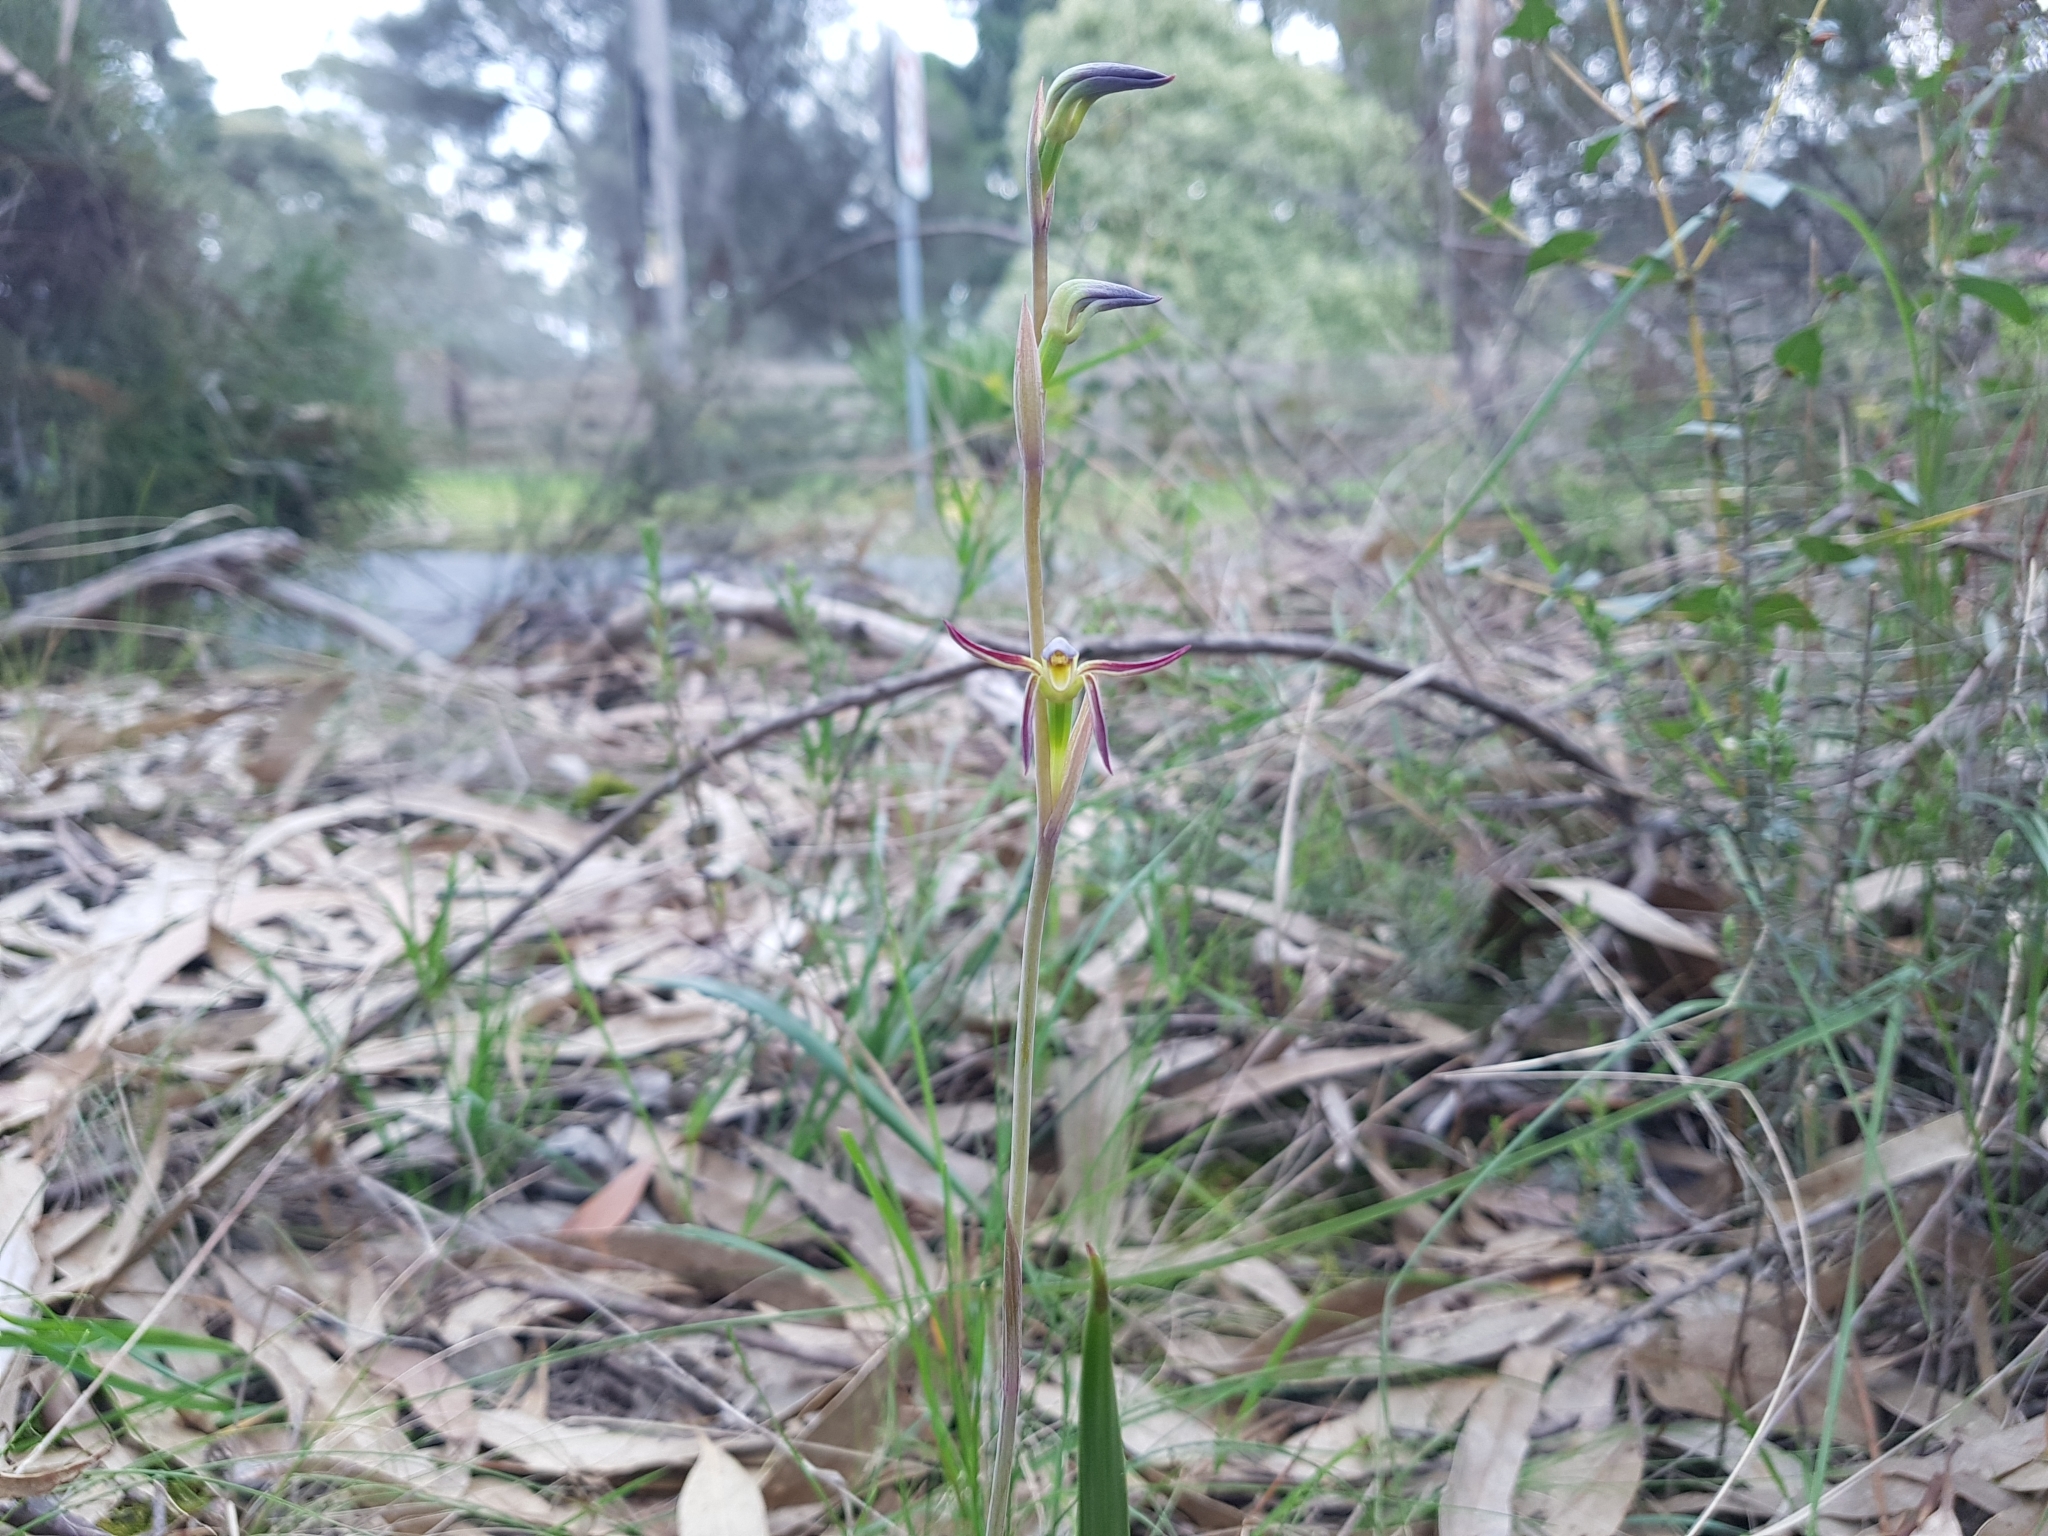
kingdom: Plantae
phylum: Tracheophyta
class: Liliopsida
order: Asparagales
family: Orchidaceae
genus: Lyperanthus
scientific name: Lyperanthus suaveolens
